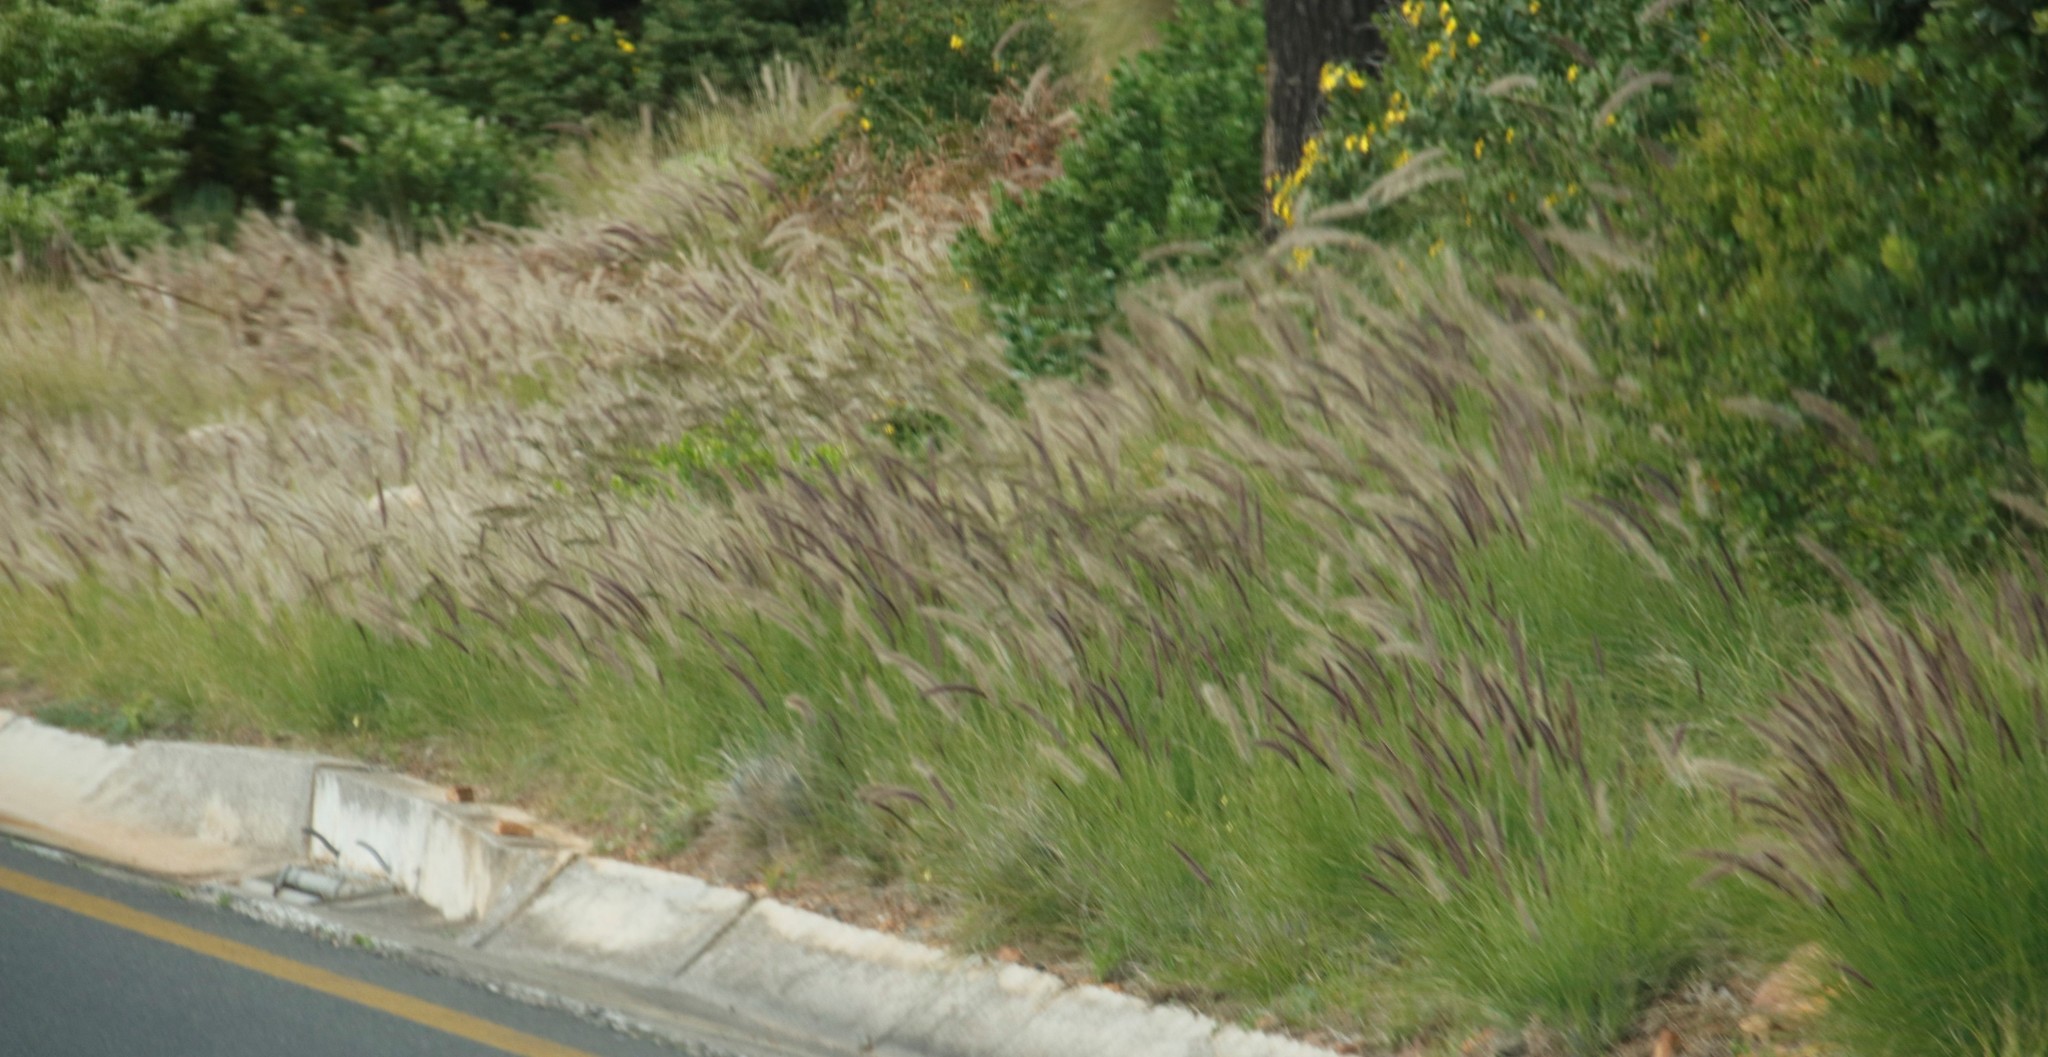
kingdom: Plantae
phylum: Tracheophyta
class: Liliopsida
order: Poales
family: Poaceae
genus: Cenchrus
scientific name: Cenchrus setaceus
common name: Crimson fountaingrass
